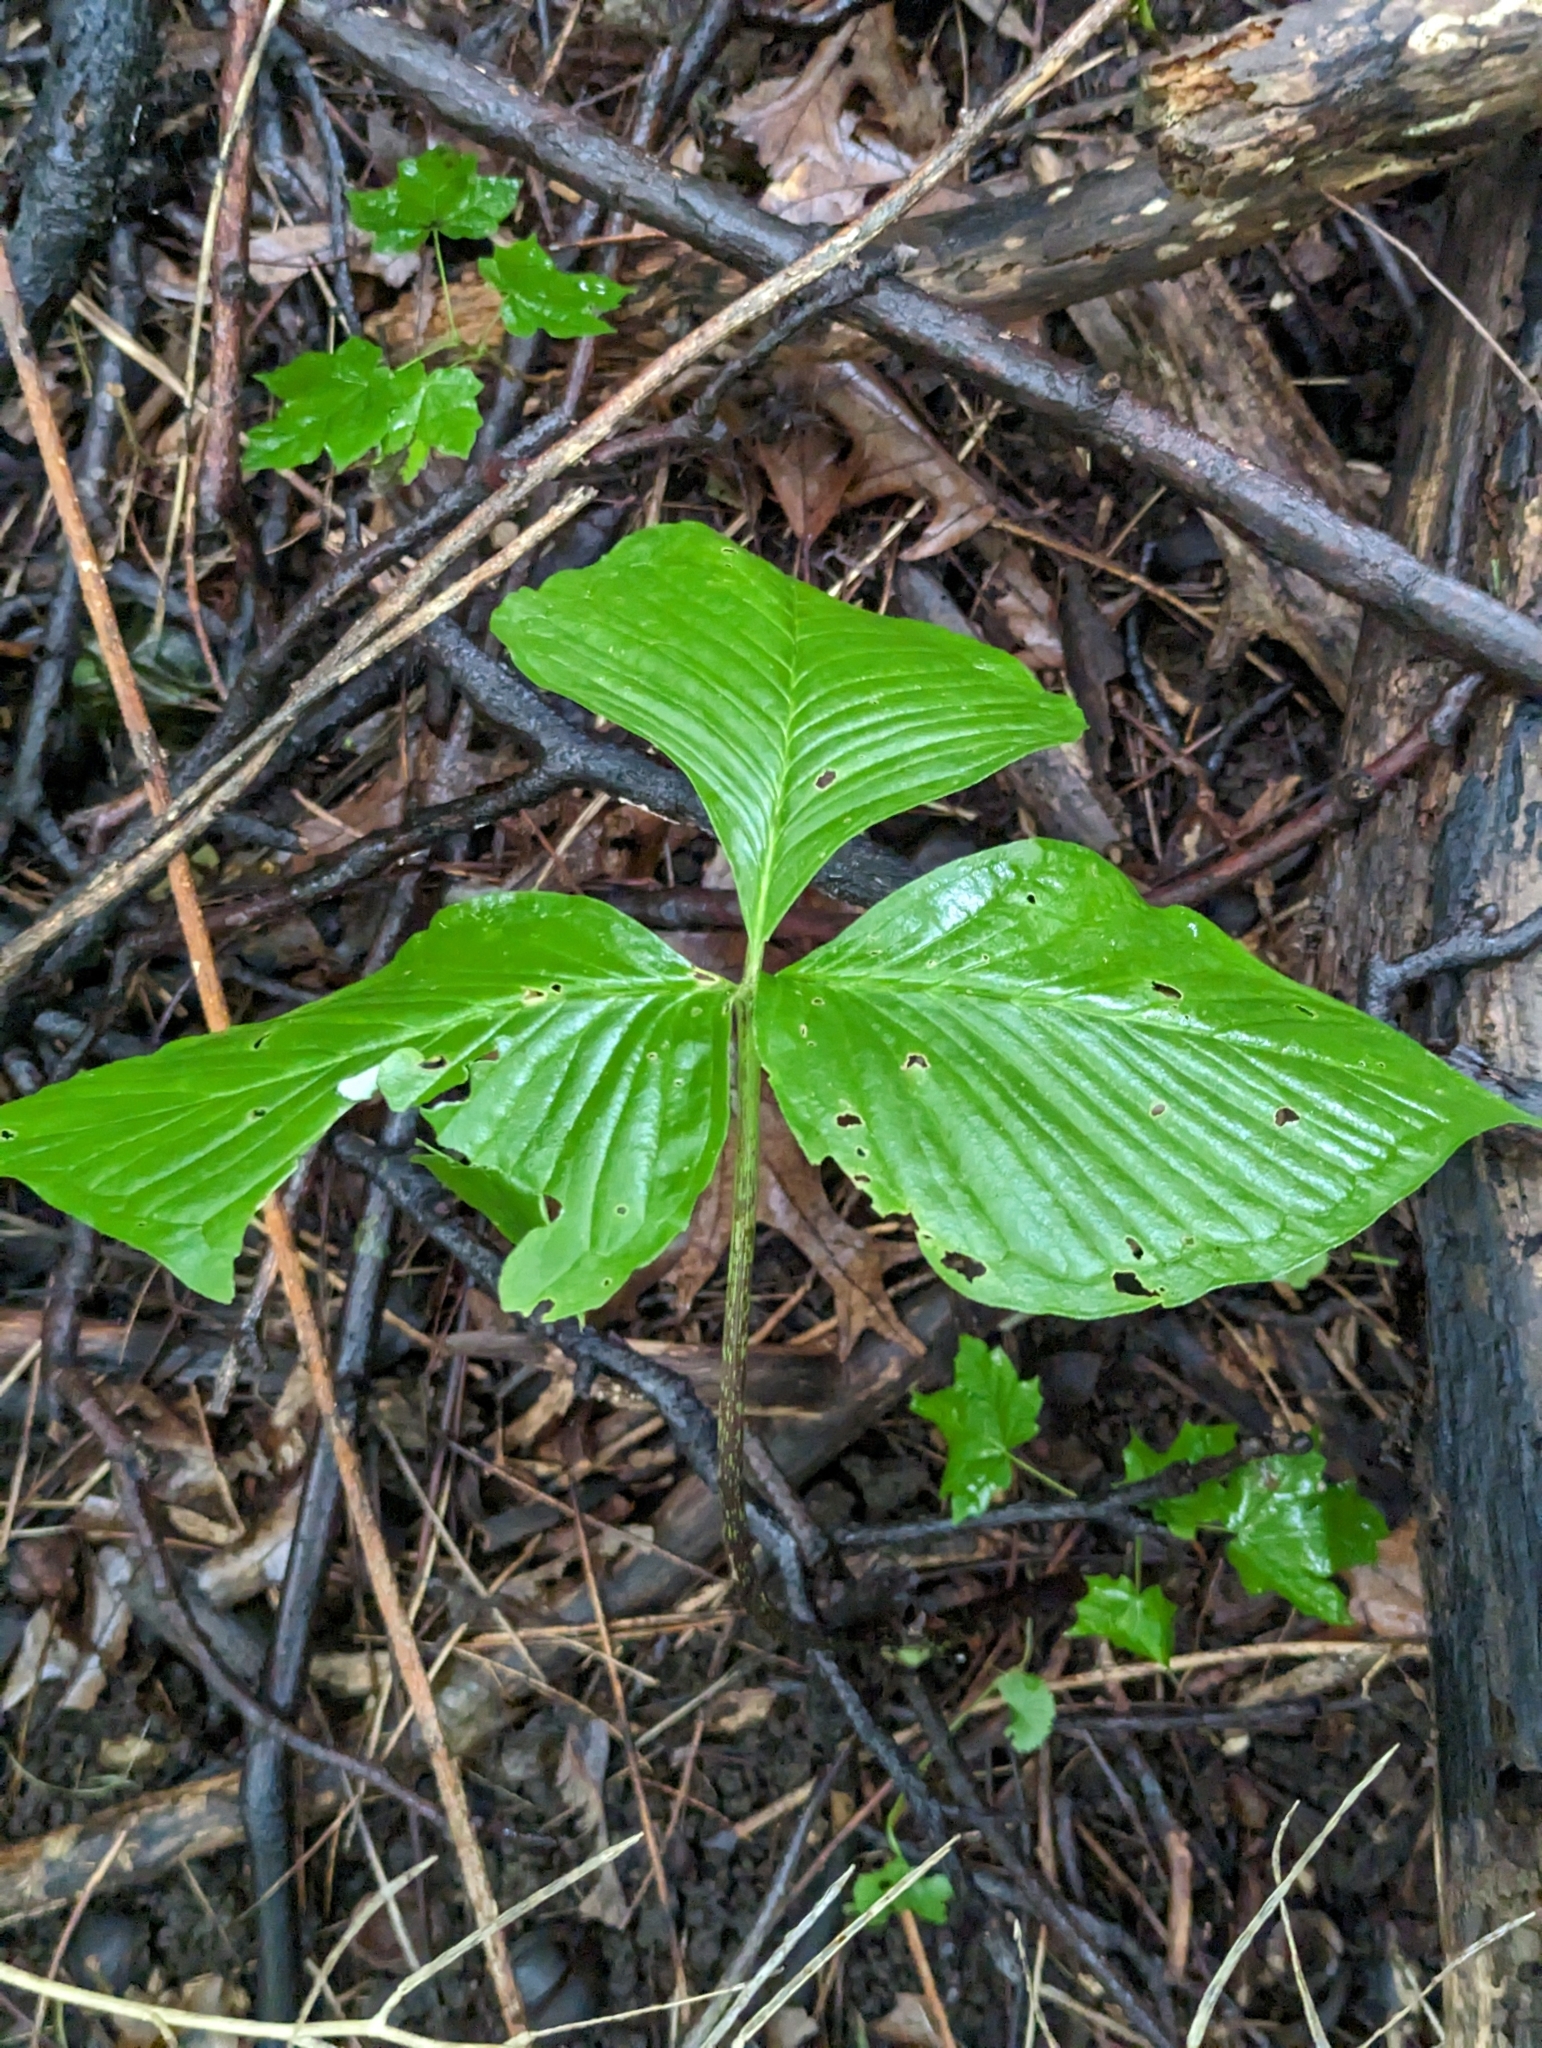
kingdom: Plantae
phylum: Tracheophyta
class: Liliopsida
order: Alismatales
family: Araceae
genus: Arisaema
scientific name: Arisaema triphyllum
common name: Jack-in-the-pulpit
